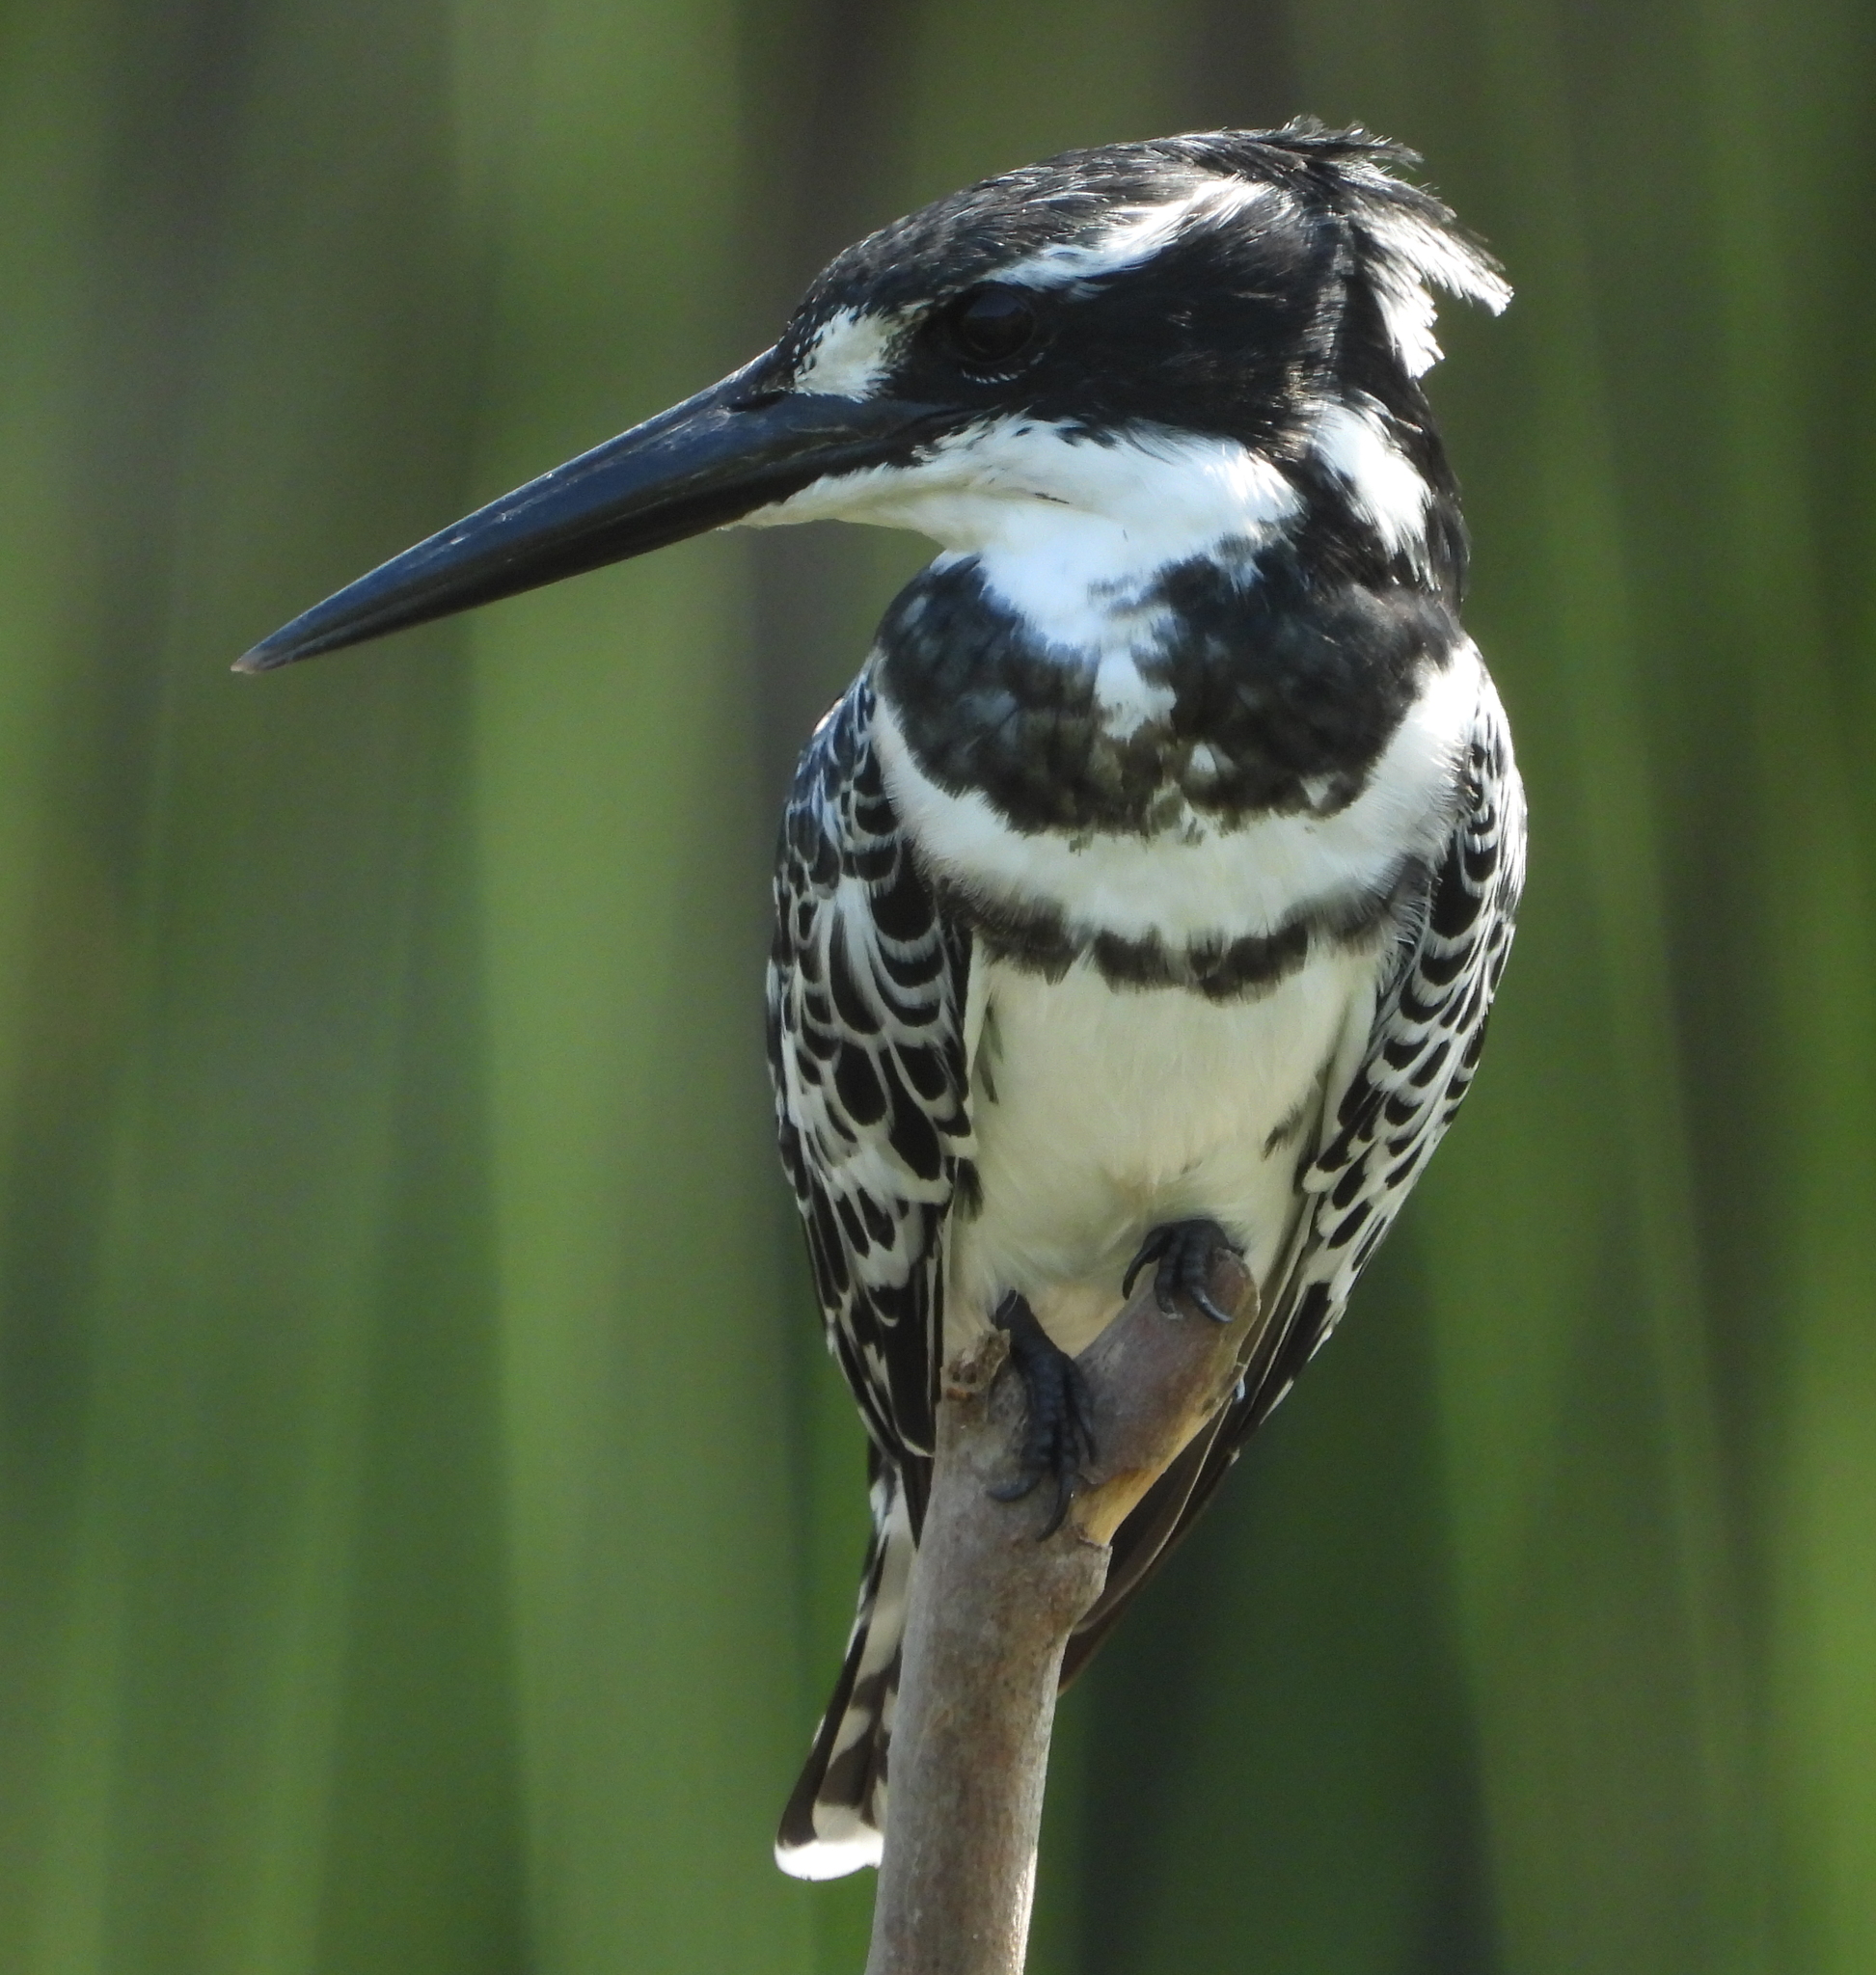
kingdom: Animalia
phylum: Chordata
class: Aves
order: Coraciiformes
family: Alcedinidae
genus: Ceryle
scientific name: Ceryle rudis
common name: Pied kingfisher
